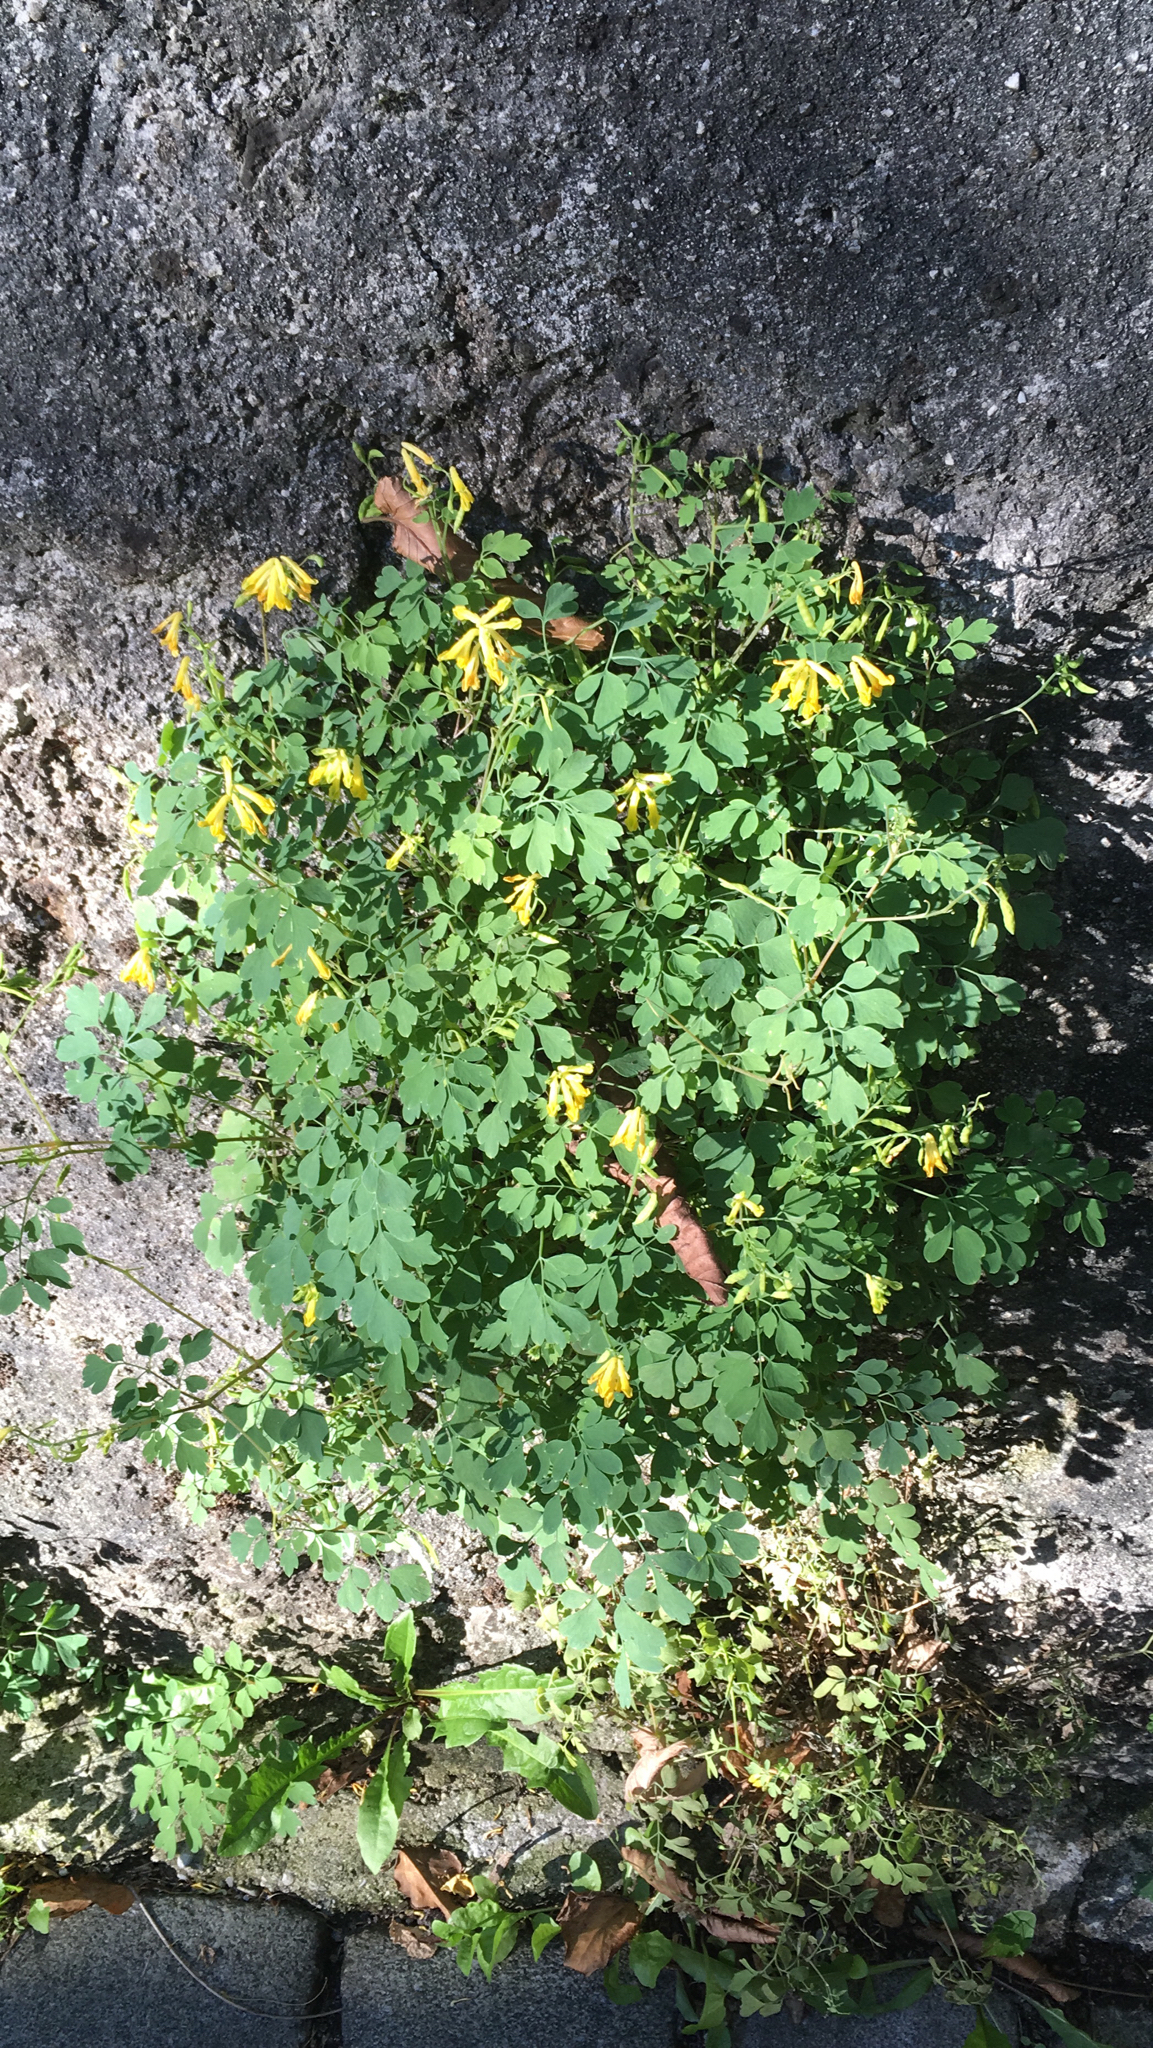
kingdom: Plantae
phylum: Tracheophyta
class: Magnoliopsida
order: Ranunculales
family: Papaveraceae
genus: Pseudofumaria
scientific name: Pseudofumaria lutea
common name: Yellow corydalis
